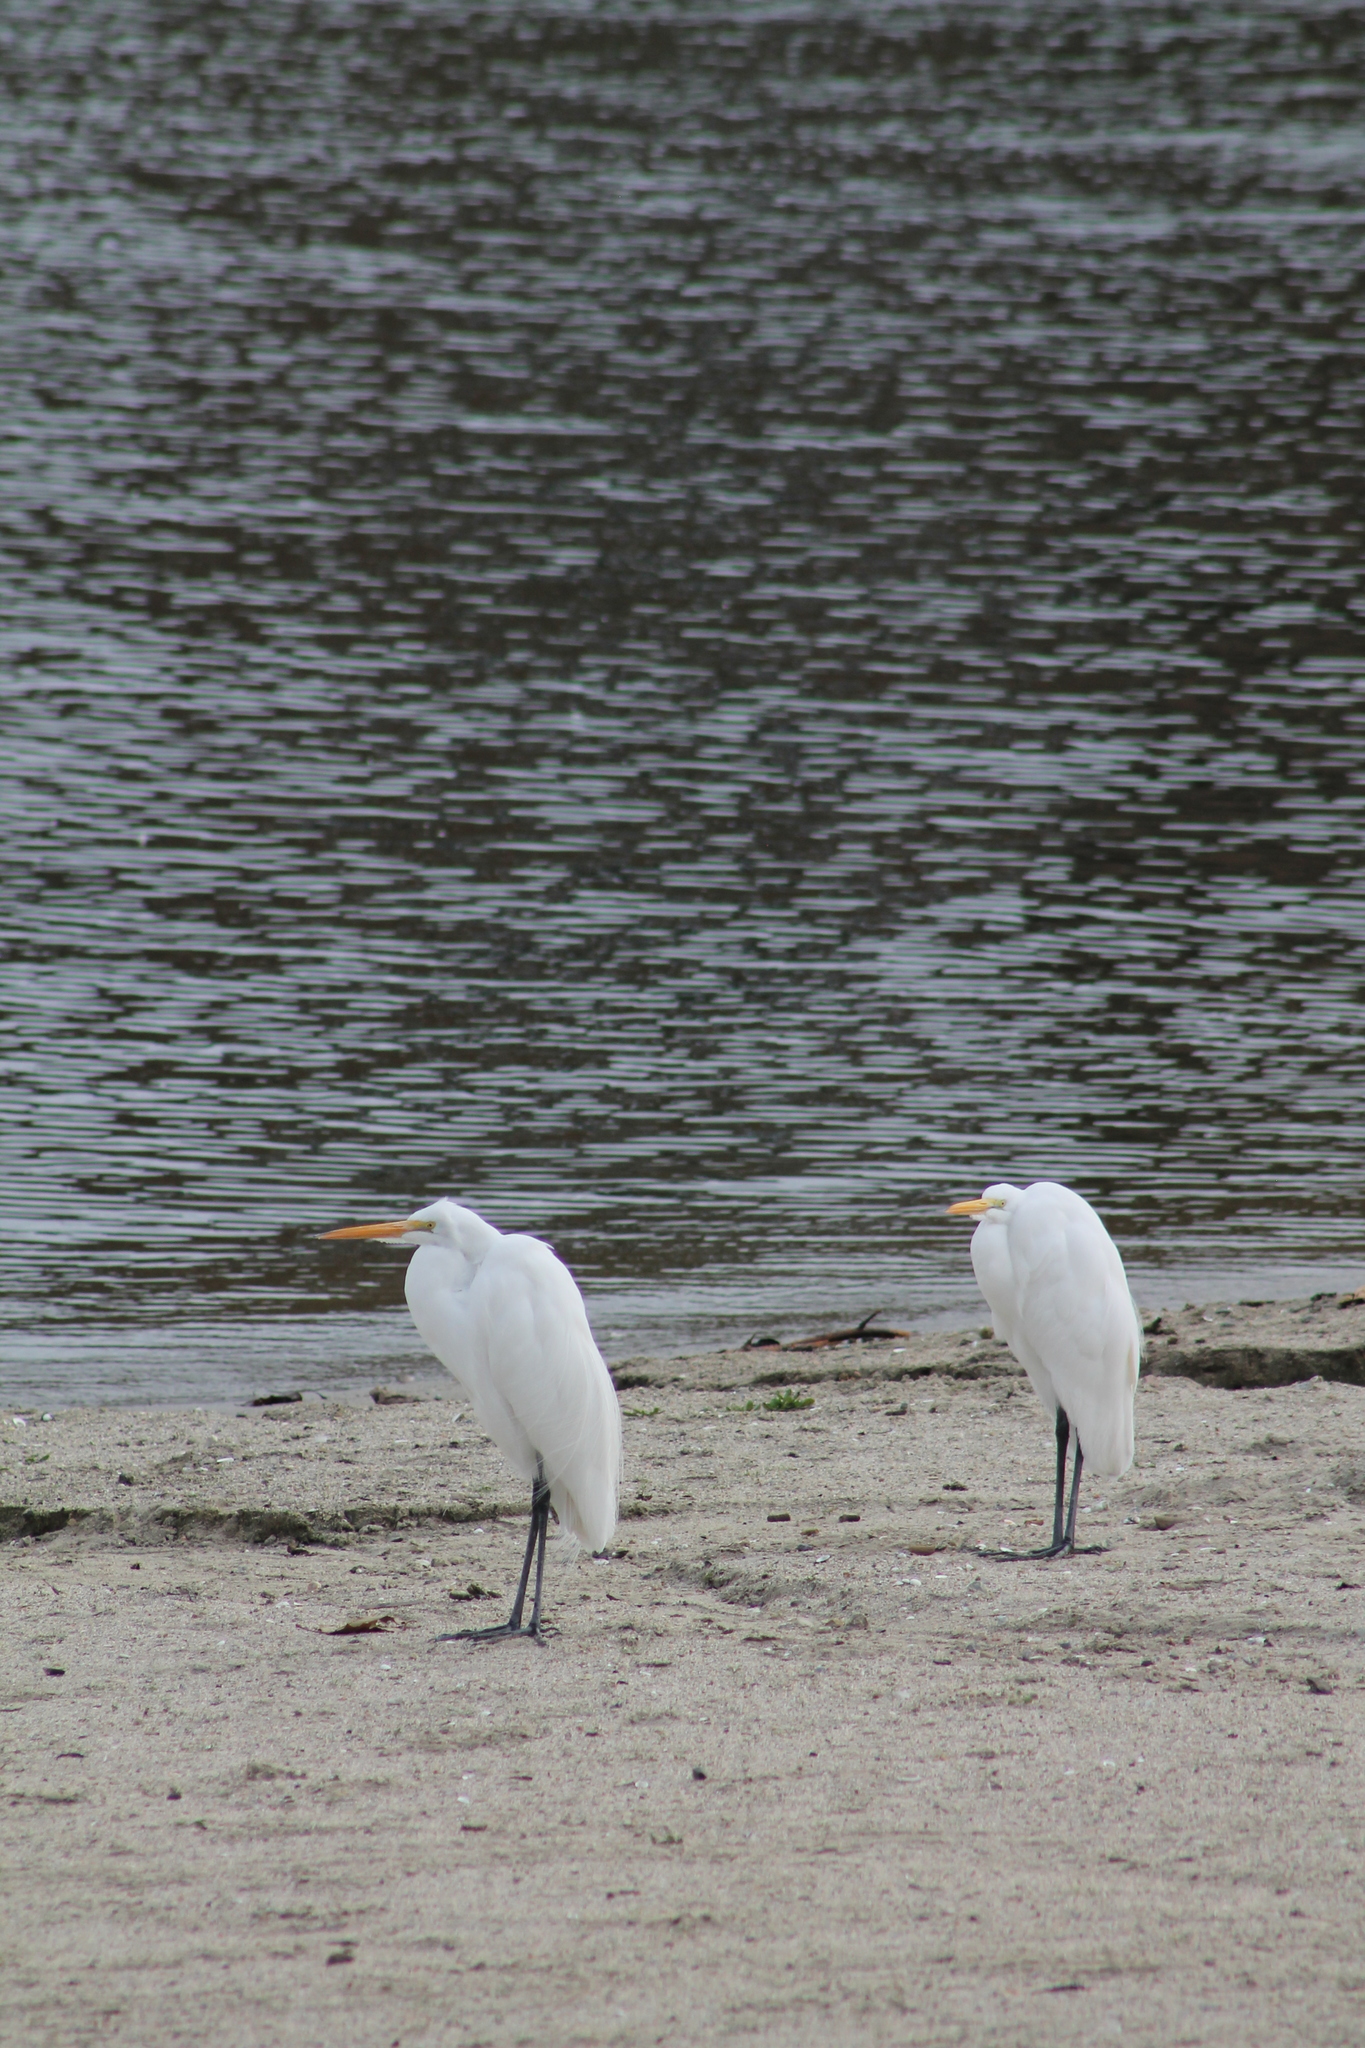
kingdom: Animalia
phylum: Chordata
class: Aves
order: Pelecaniformes
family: Ardeidae
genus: Ardea
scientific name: Ardea alba
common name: Great egret
